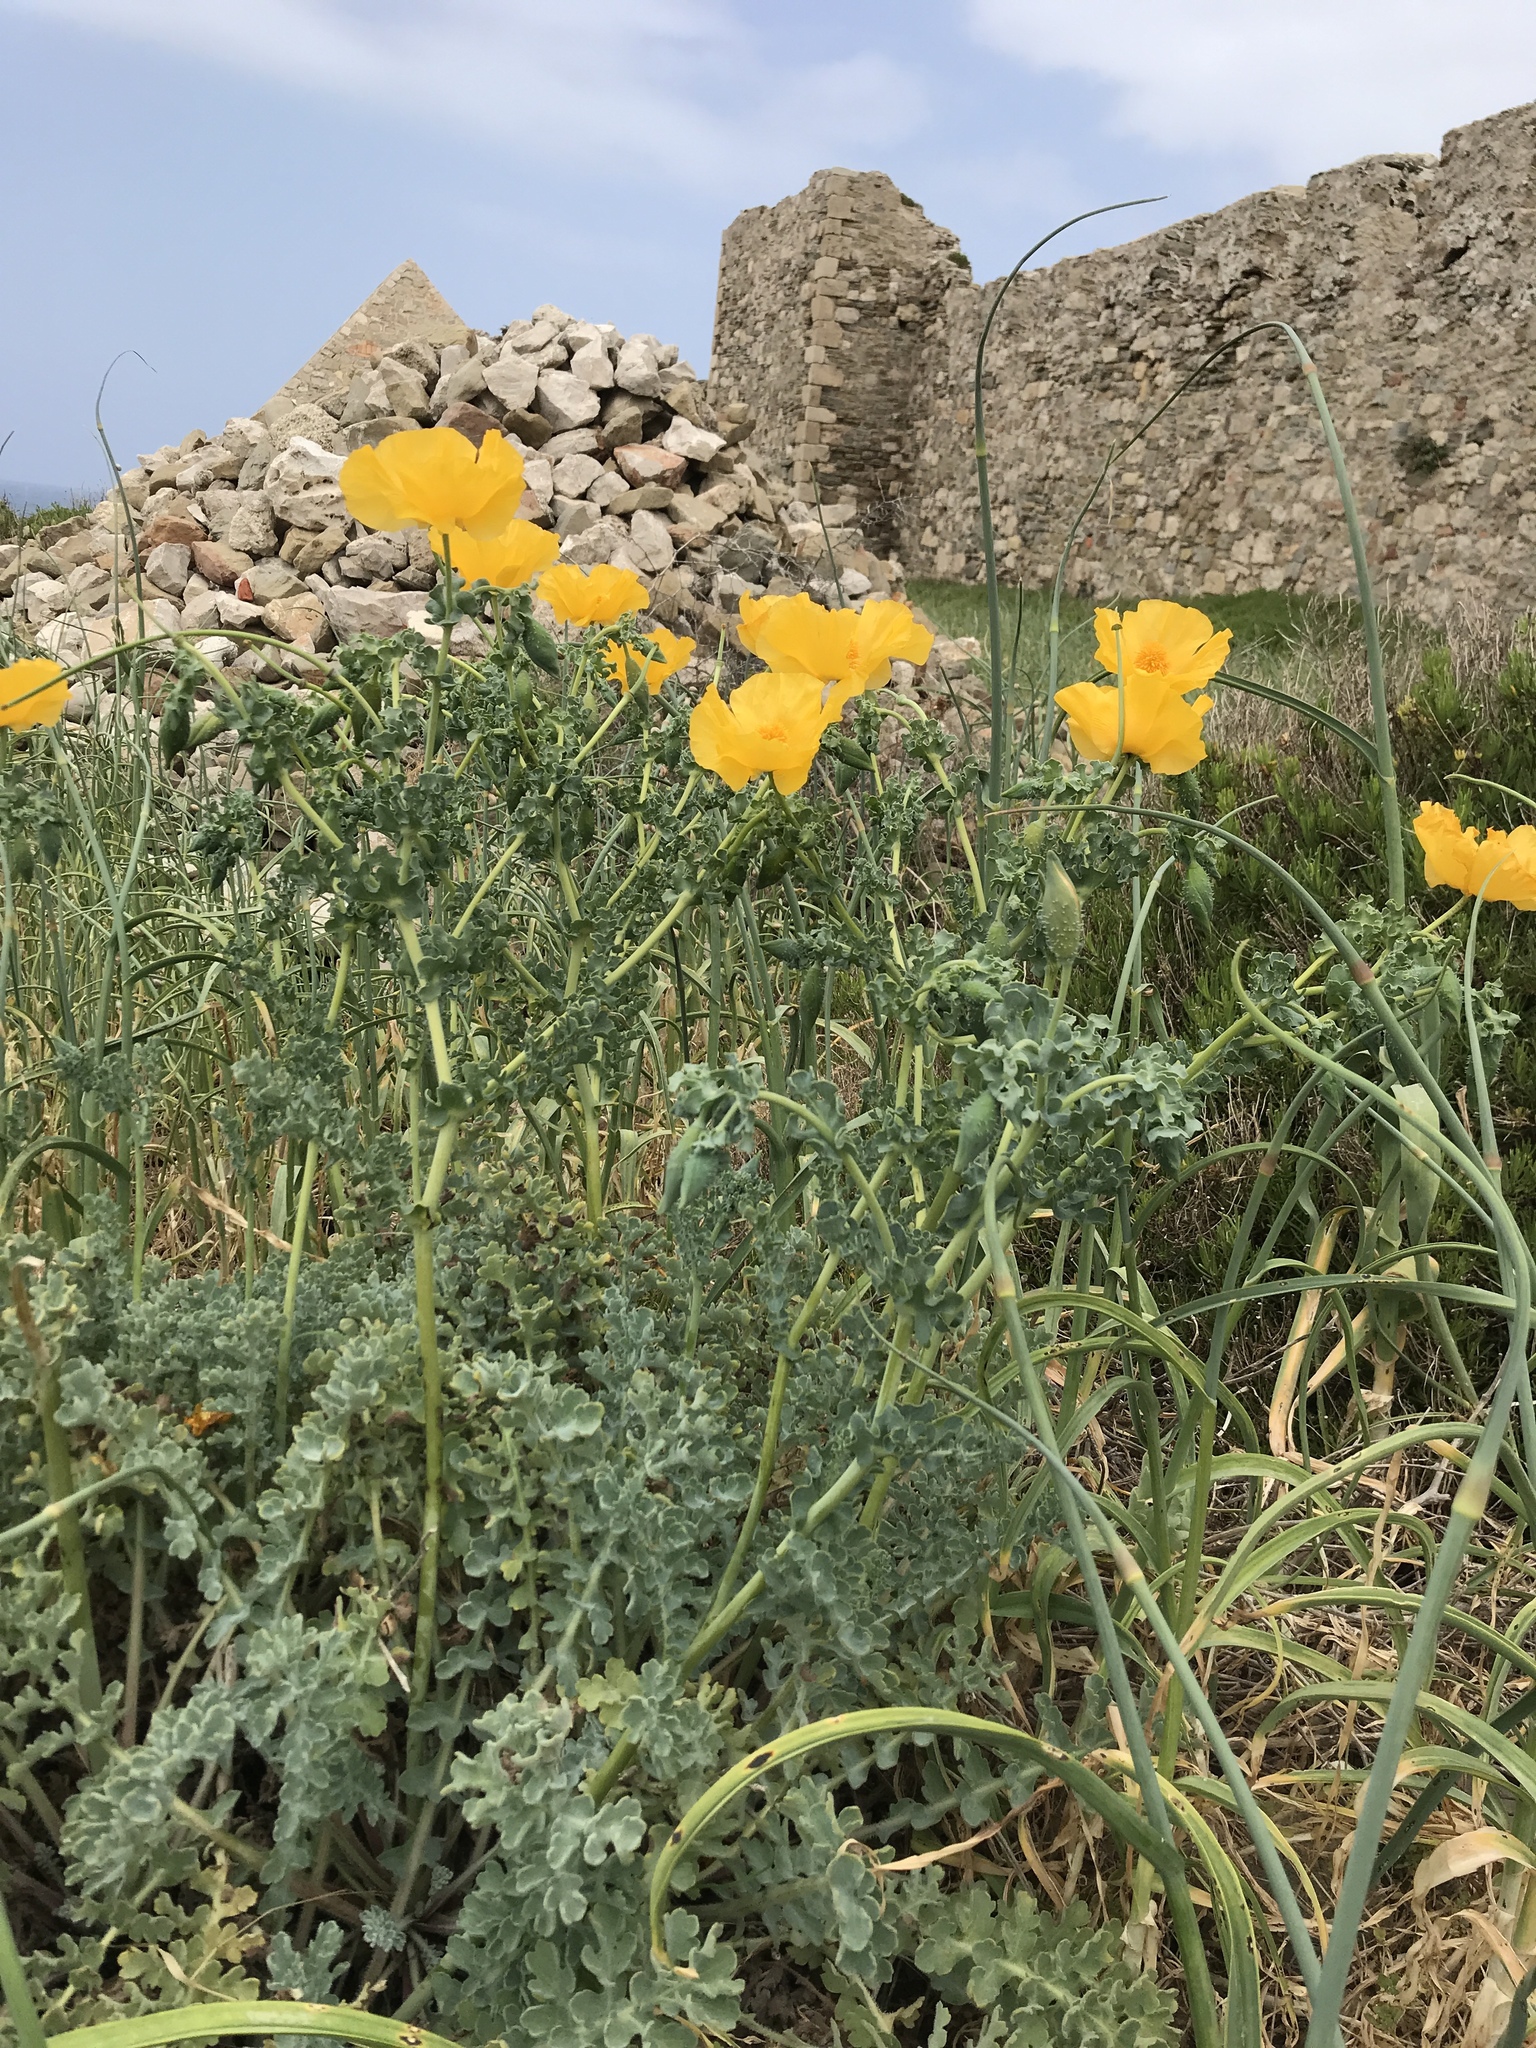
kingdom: Plantae
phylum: Tracheophyta
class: Magnoliopsida
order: Ranunculales
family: Papaveraceae
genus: Glaucium
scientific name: Glaucium flavum
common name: Yellow horned-poppy
